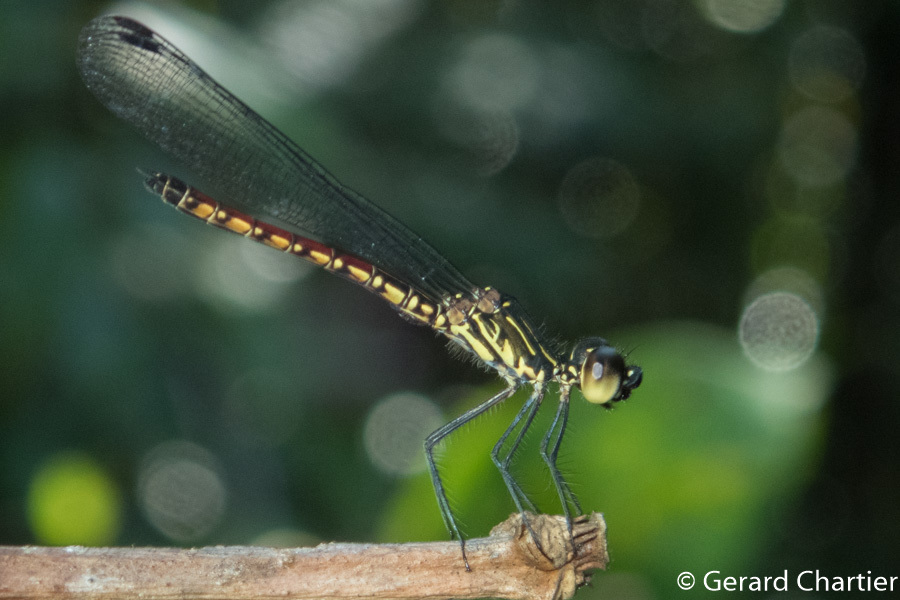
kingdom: Animalia
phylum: Arthropoda
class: Insecta
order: Odonata
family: Chlorocyphidae
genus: Libellago
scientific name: Libellago hyalina
